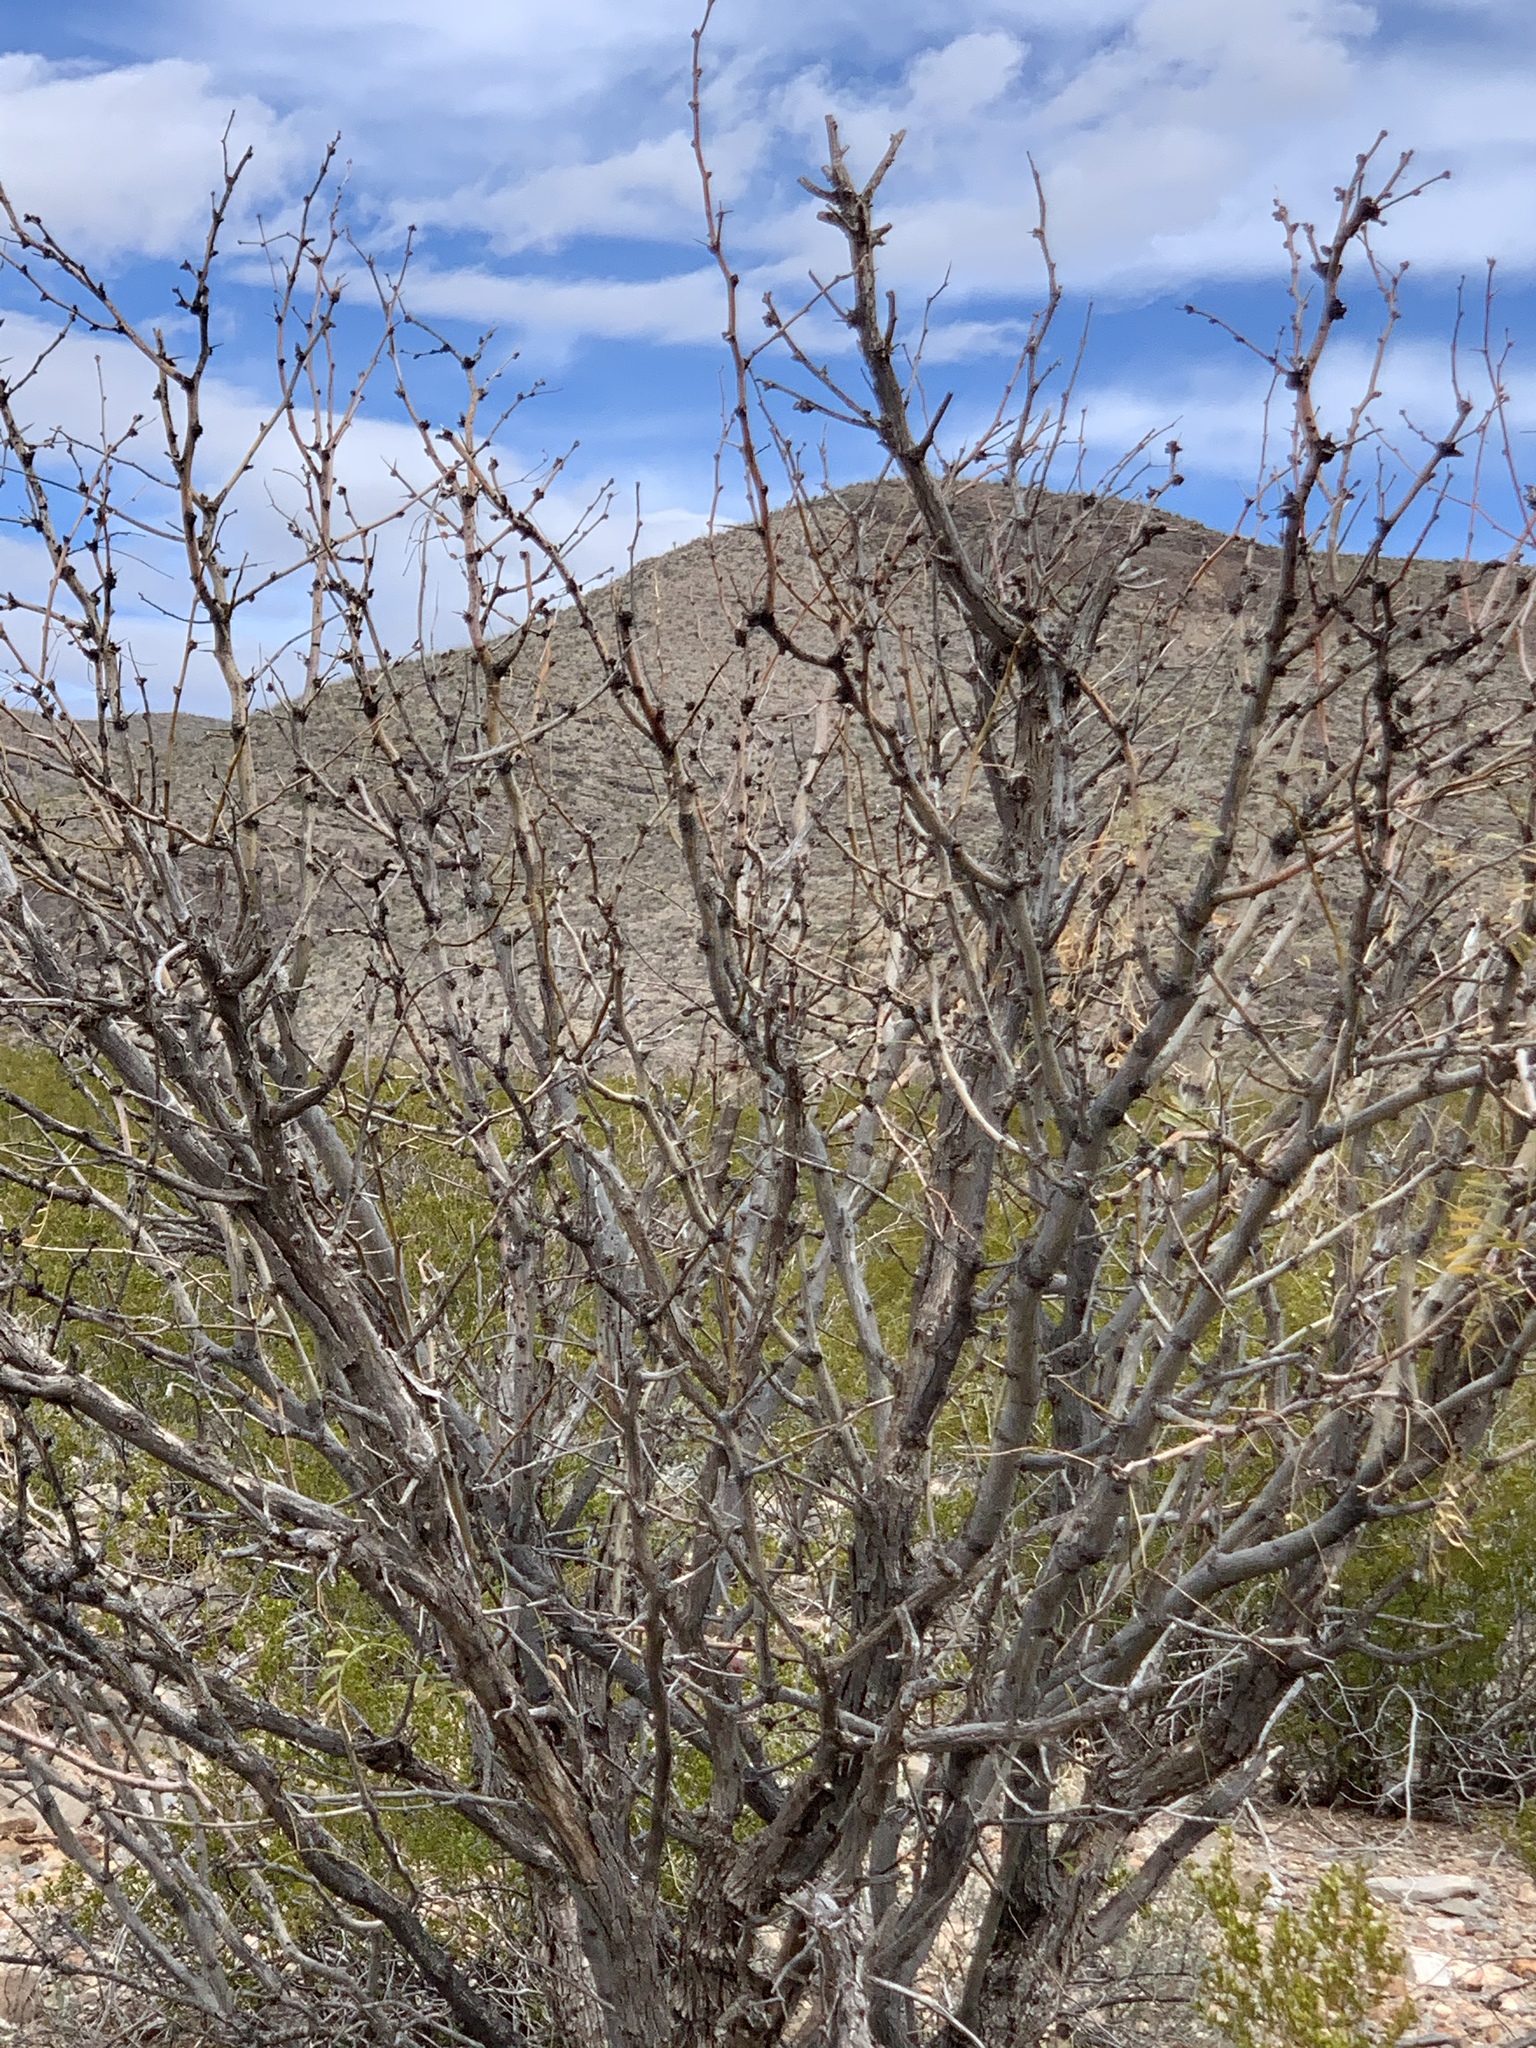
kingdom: Plantae
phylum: Tracheophyta
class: Magnoliopsida
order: Fabales
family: Fabaceae
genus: Prosopis
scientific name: Prosopis glandulosa
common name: Honey mesquite
